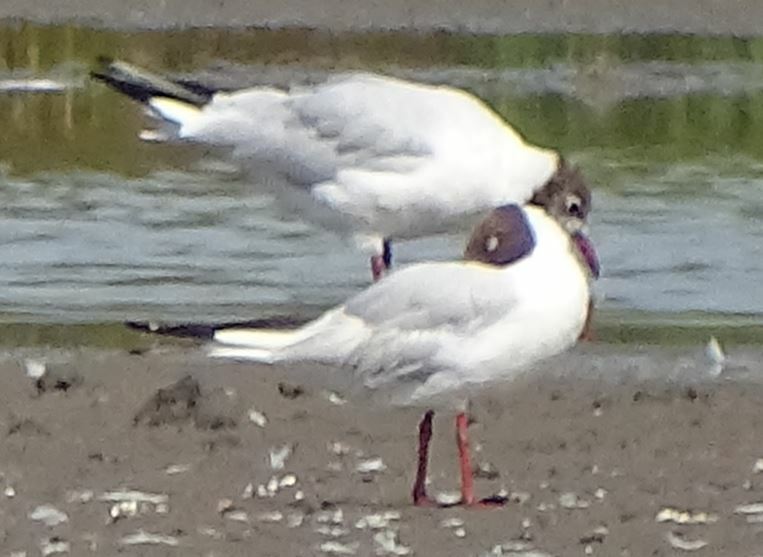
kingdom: Animalia
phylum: Chordata
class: Aves
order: Charadriiformes
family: Laridae
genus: Chroicocephalus
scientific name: Chroicocephalus ridibundus
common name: Black-headed gull
